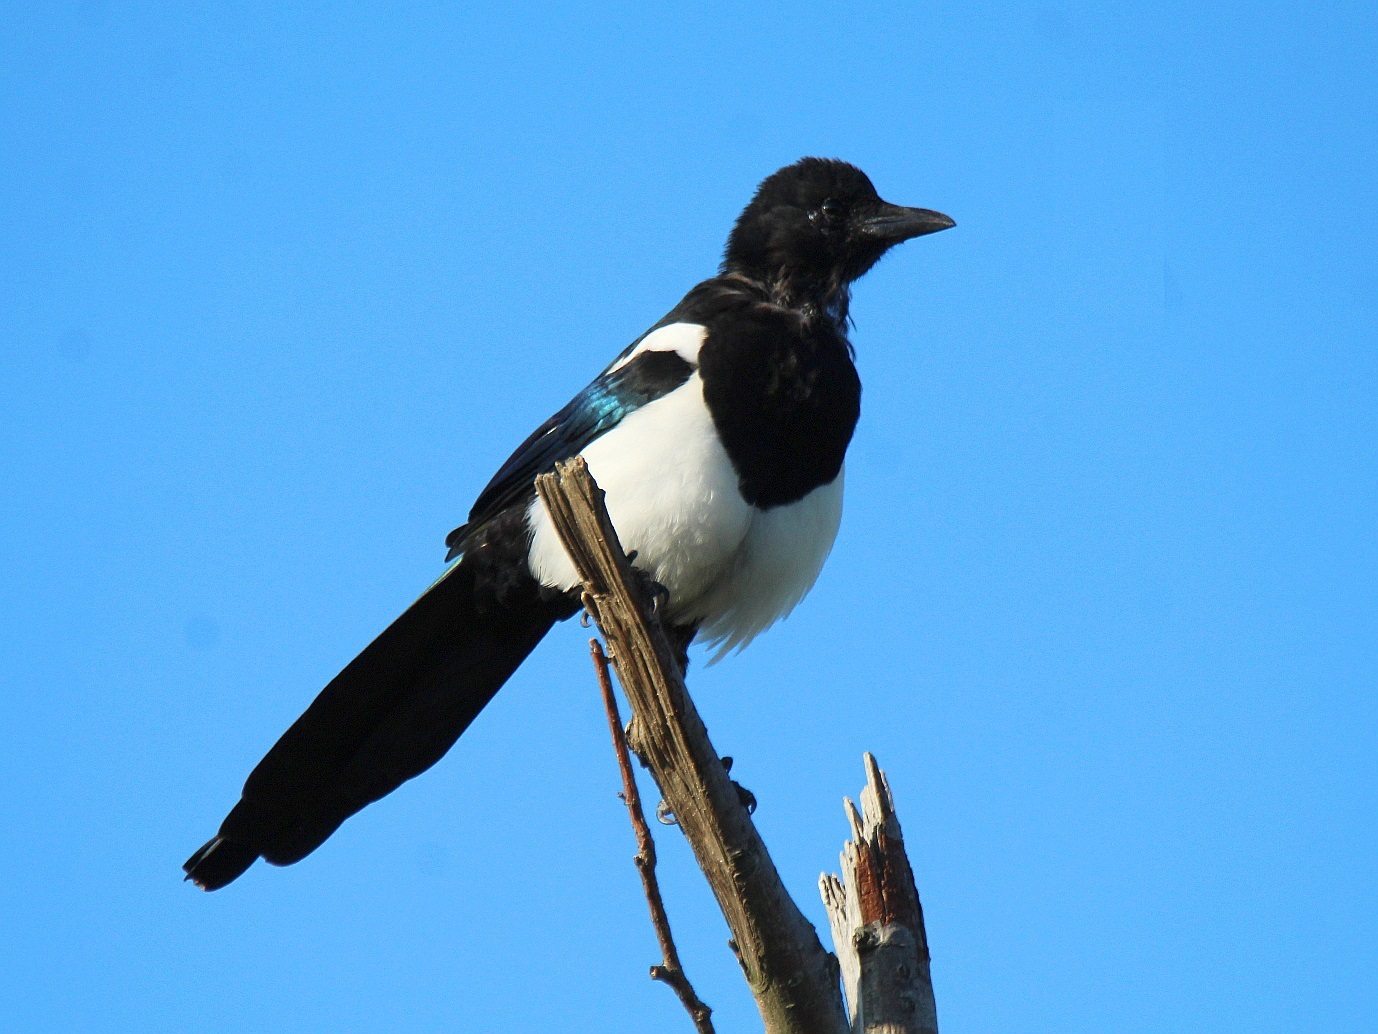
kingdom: Animalia
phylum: Chordata
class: Aves
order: Passeriformes
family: Corvidae
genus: Pica
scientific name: Pica serica
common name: Oriental magpie
